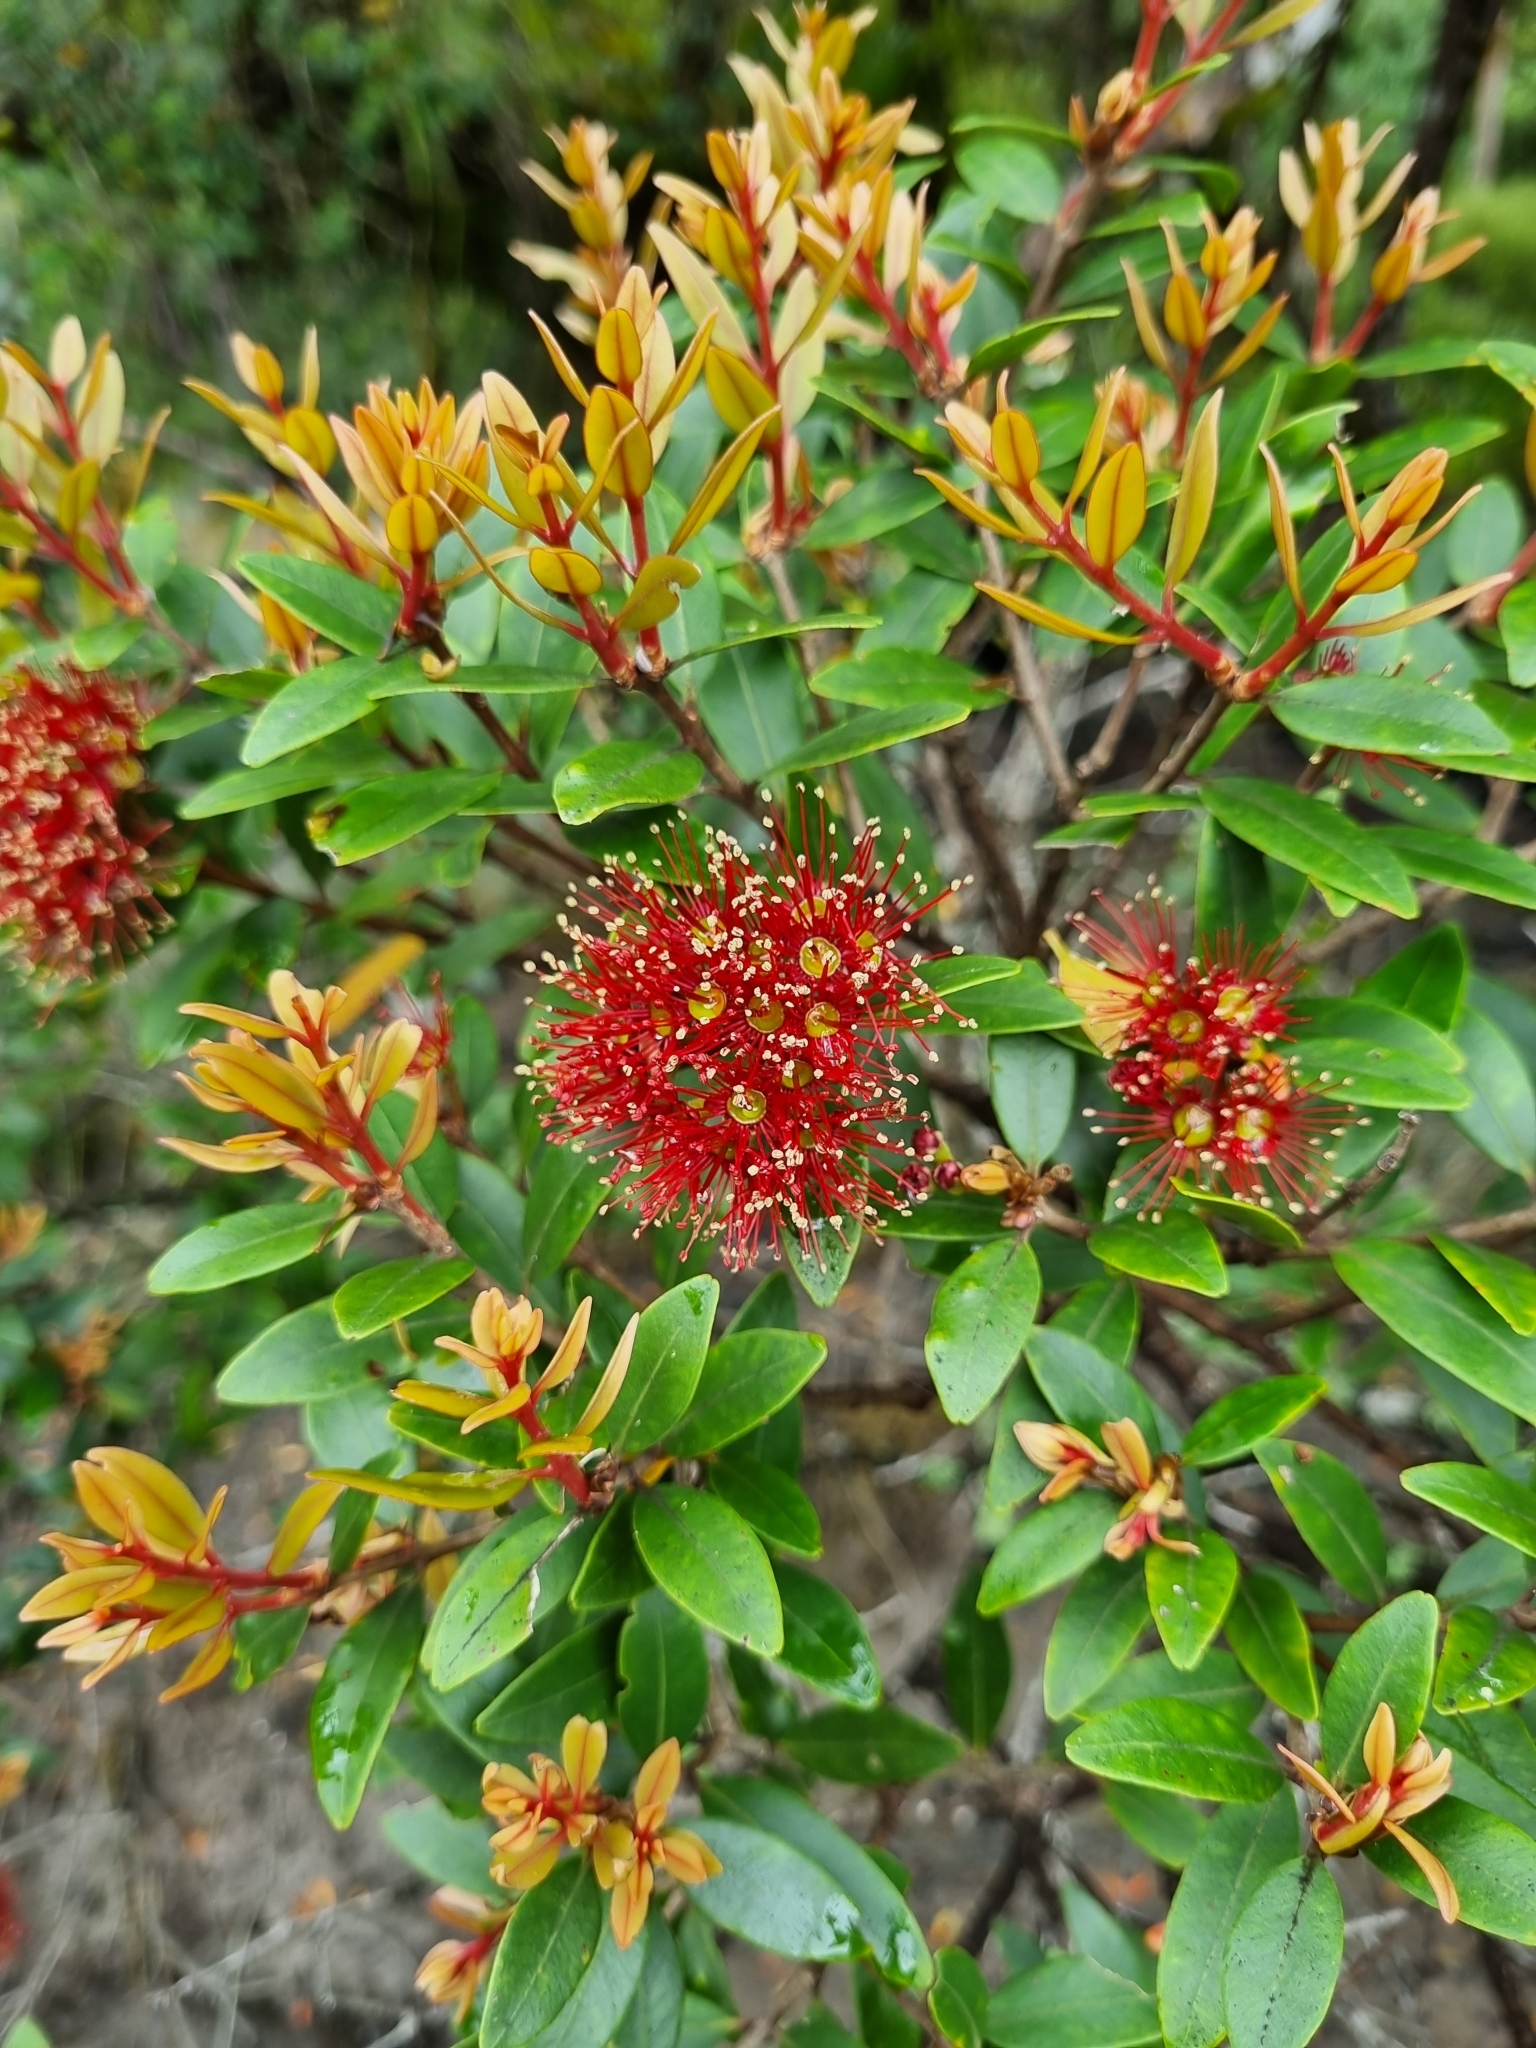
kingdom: Plantae
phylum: Tracheophyta
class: Magnoliopsida
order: Myrtales
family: Myrtaceae
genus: Metrosideros
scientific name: Metrosideros robusta
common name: Northern rata
